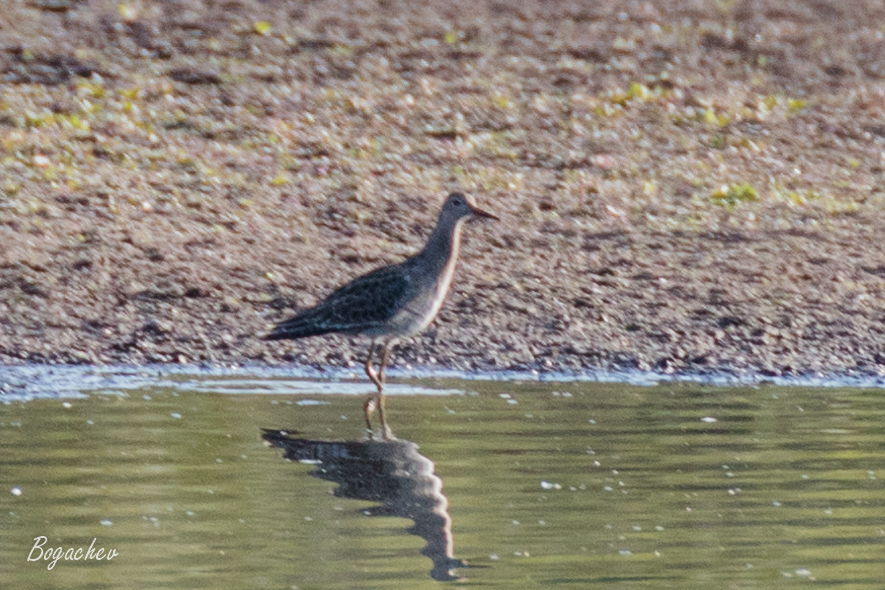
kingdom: Animalia
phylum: Chordata
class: Aves
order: Charadriiformes
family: Scolopacidae
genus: Calidris
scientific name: Calidris pugnax
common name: Ruff
